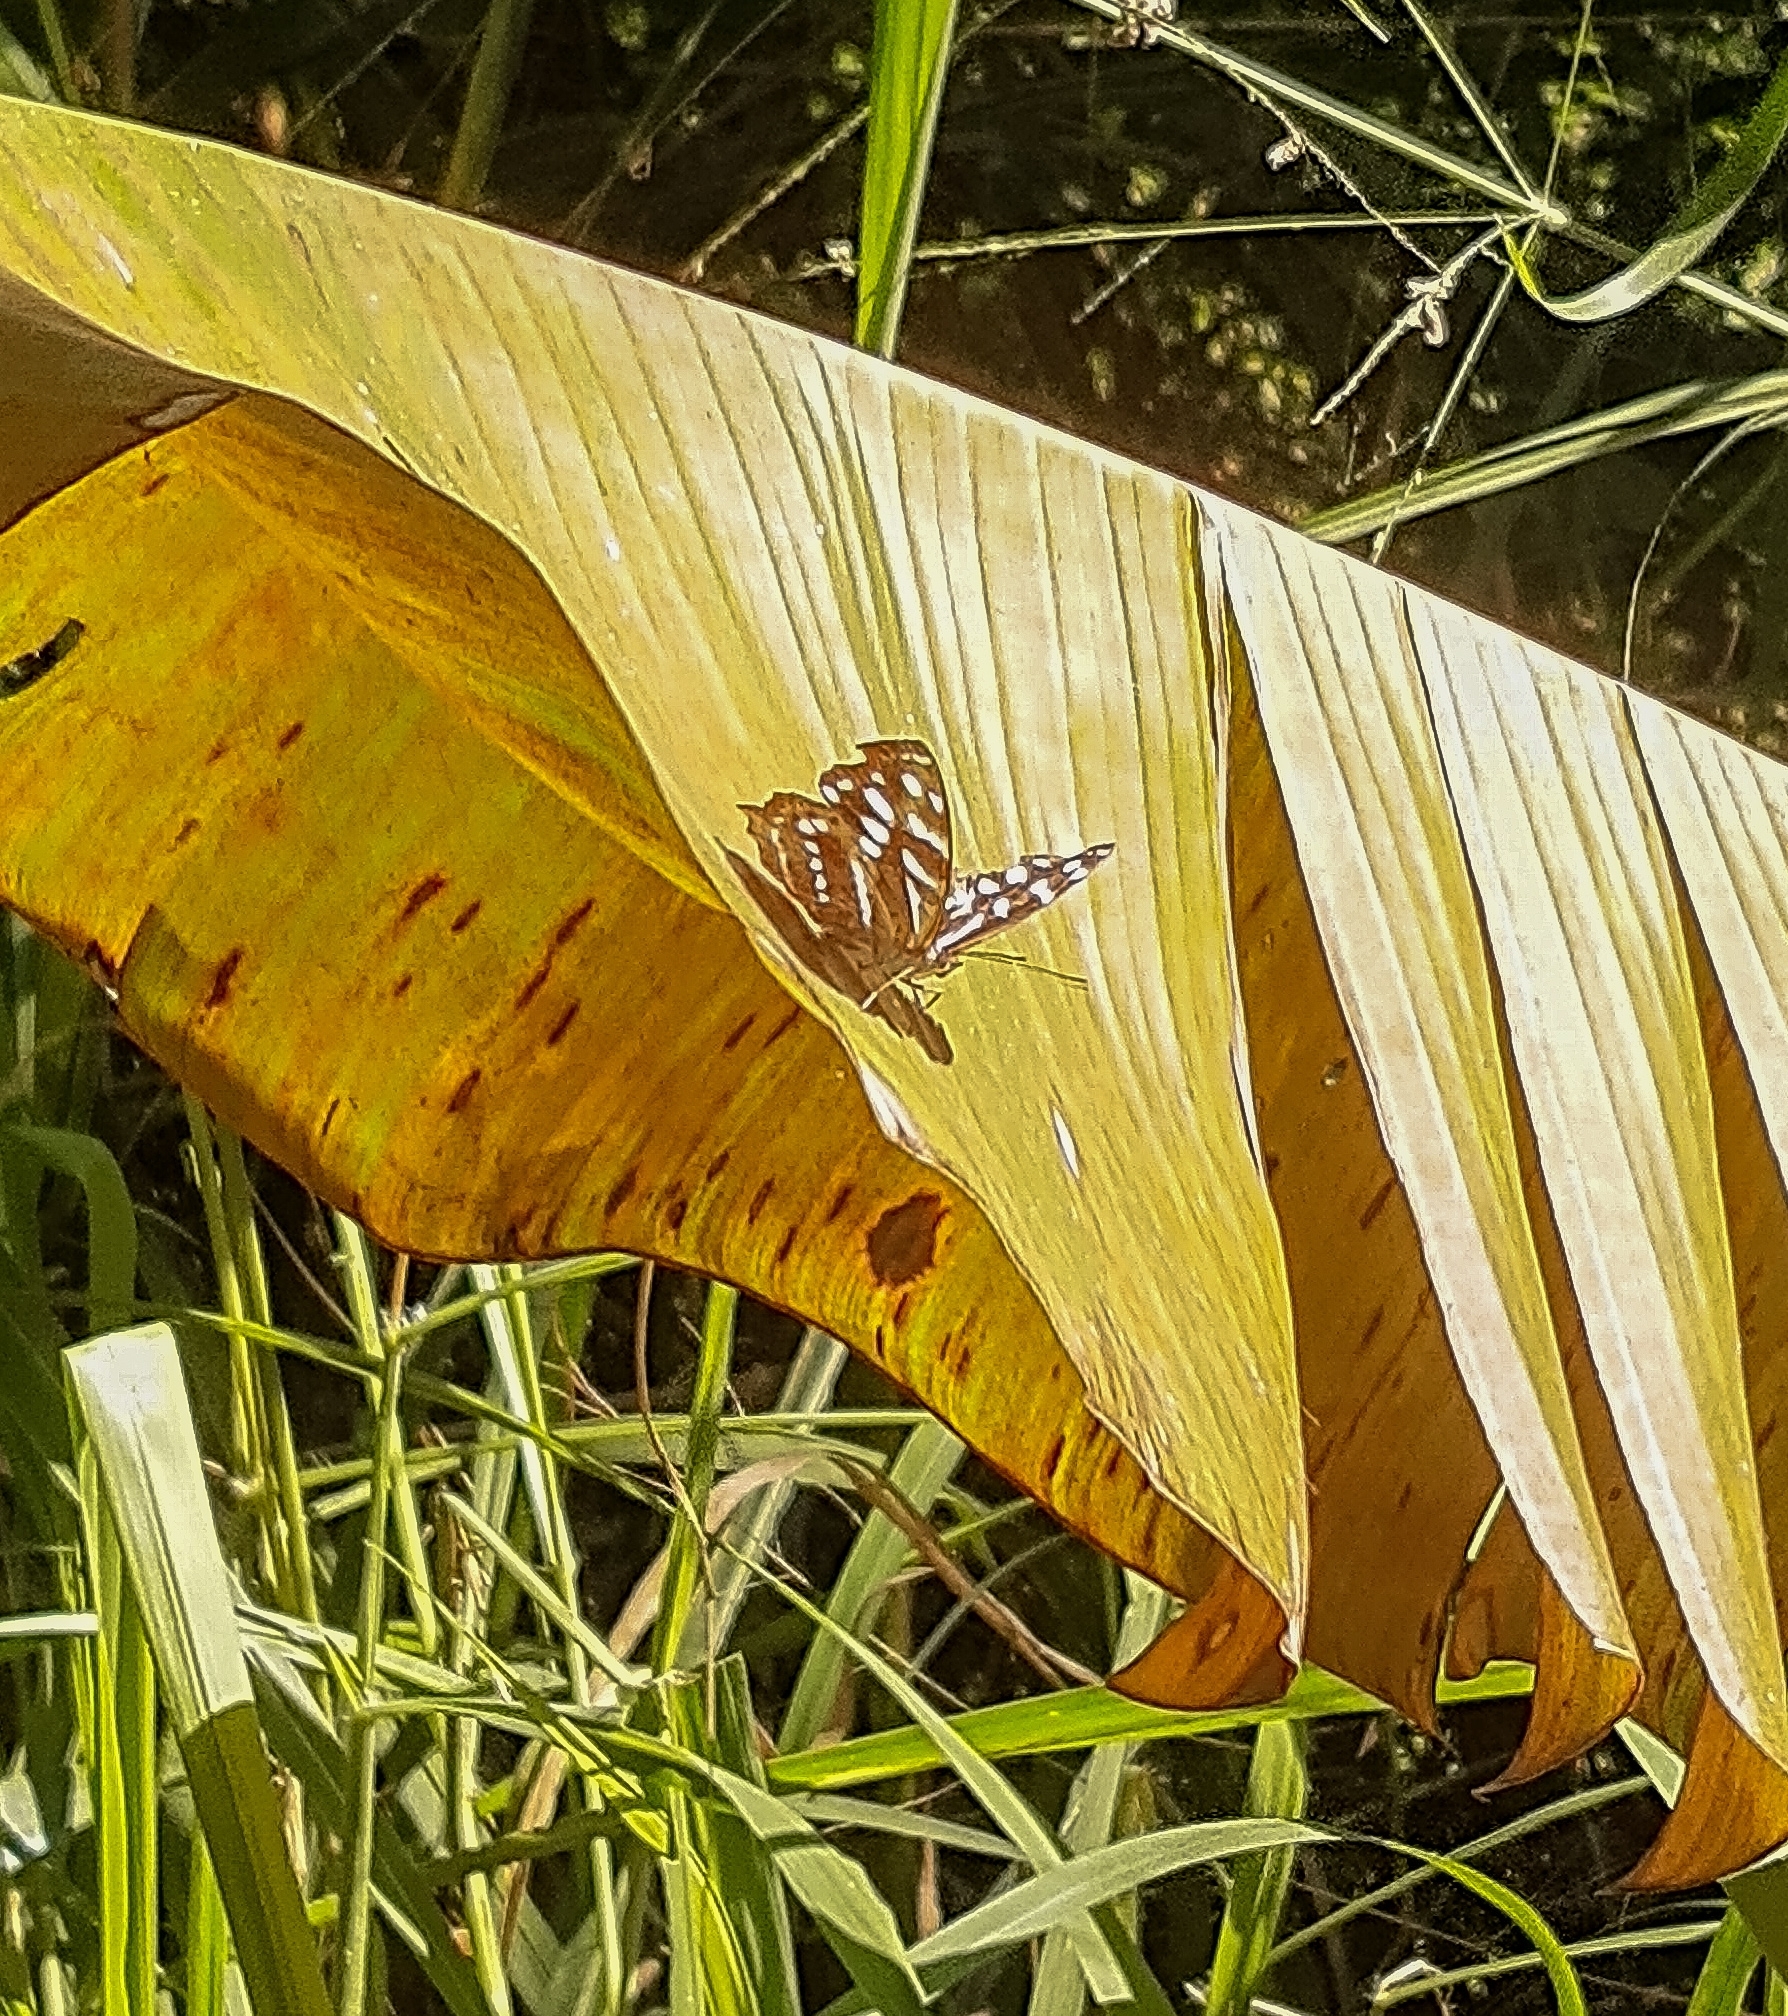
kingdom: Animalia
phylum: Arthropoda
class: Insecta
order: Lepidoptera
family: Nymphalidae
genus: Myscelia
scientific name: Myscelia orsis
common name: Orsis bluewing
